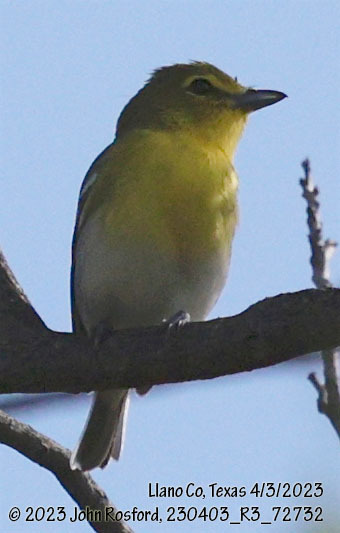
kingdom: Animalia
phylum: Chordata
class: Aves
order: Passeriformes
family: Vireonidae
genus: Vireo
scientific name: Vireo flavifrons
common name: Yellow-throated vireo
